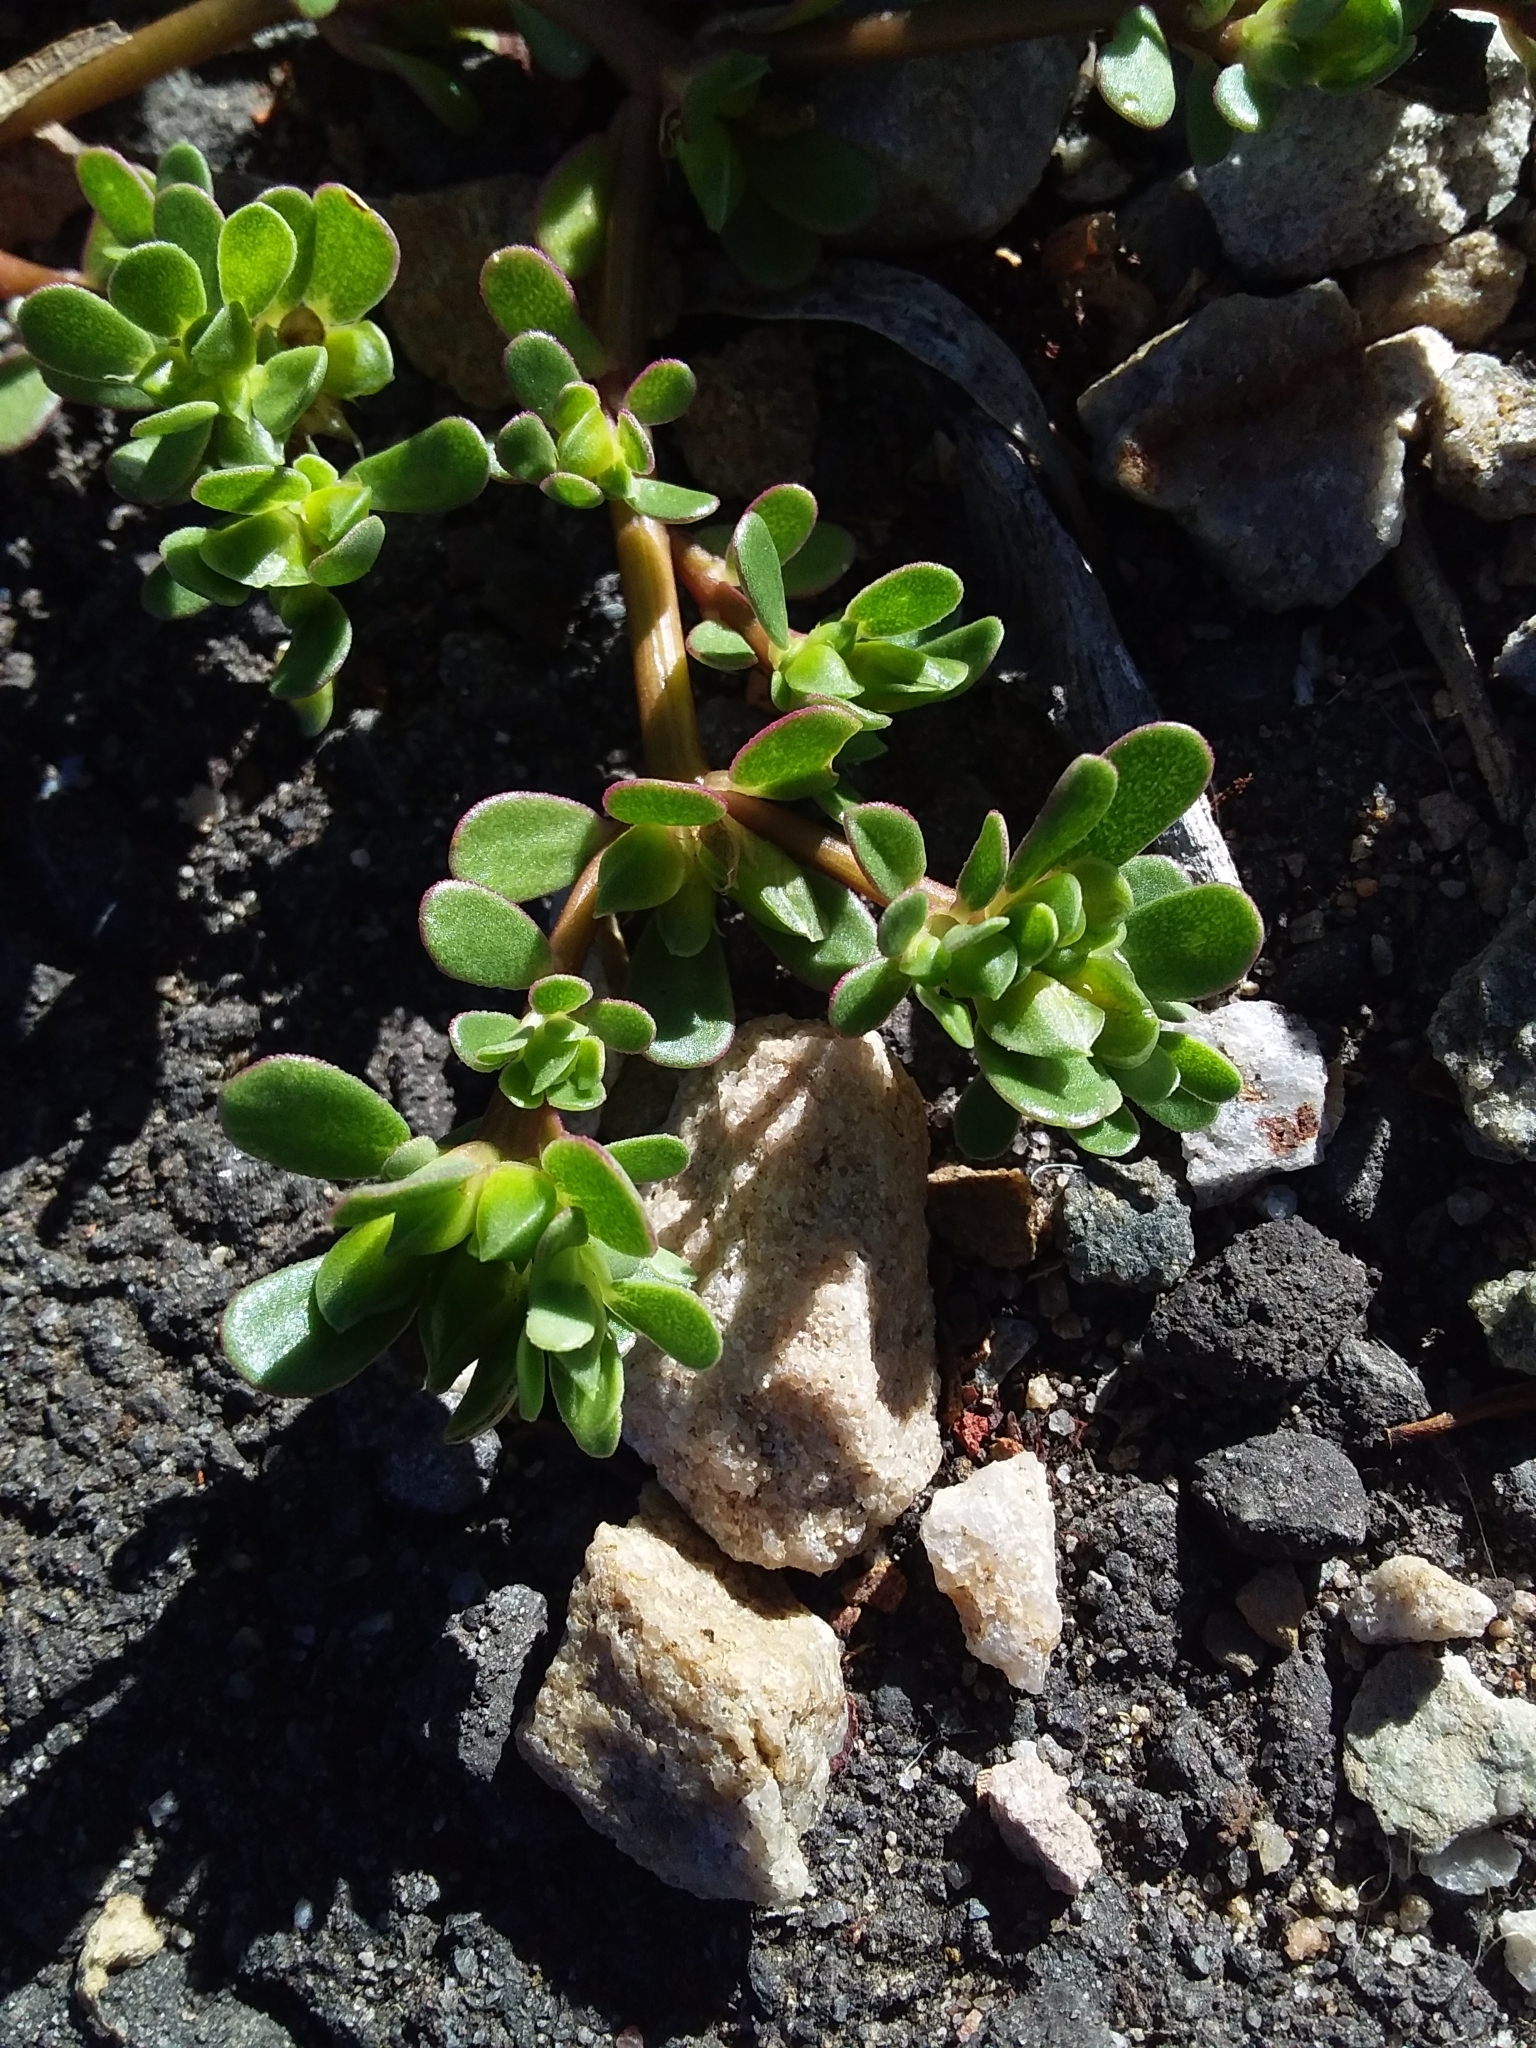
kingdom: Plantae
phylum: Tracheophyta
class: Magnoliopsida
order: Caryophyllales
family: Portulacaceae
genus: Portulaca
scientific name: Portulaca oleracea
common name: Common purslane
